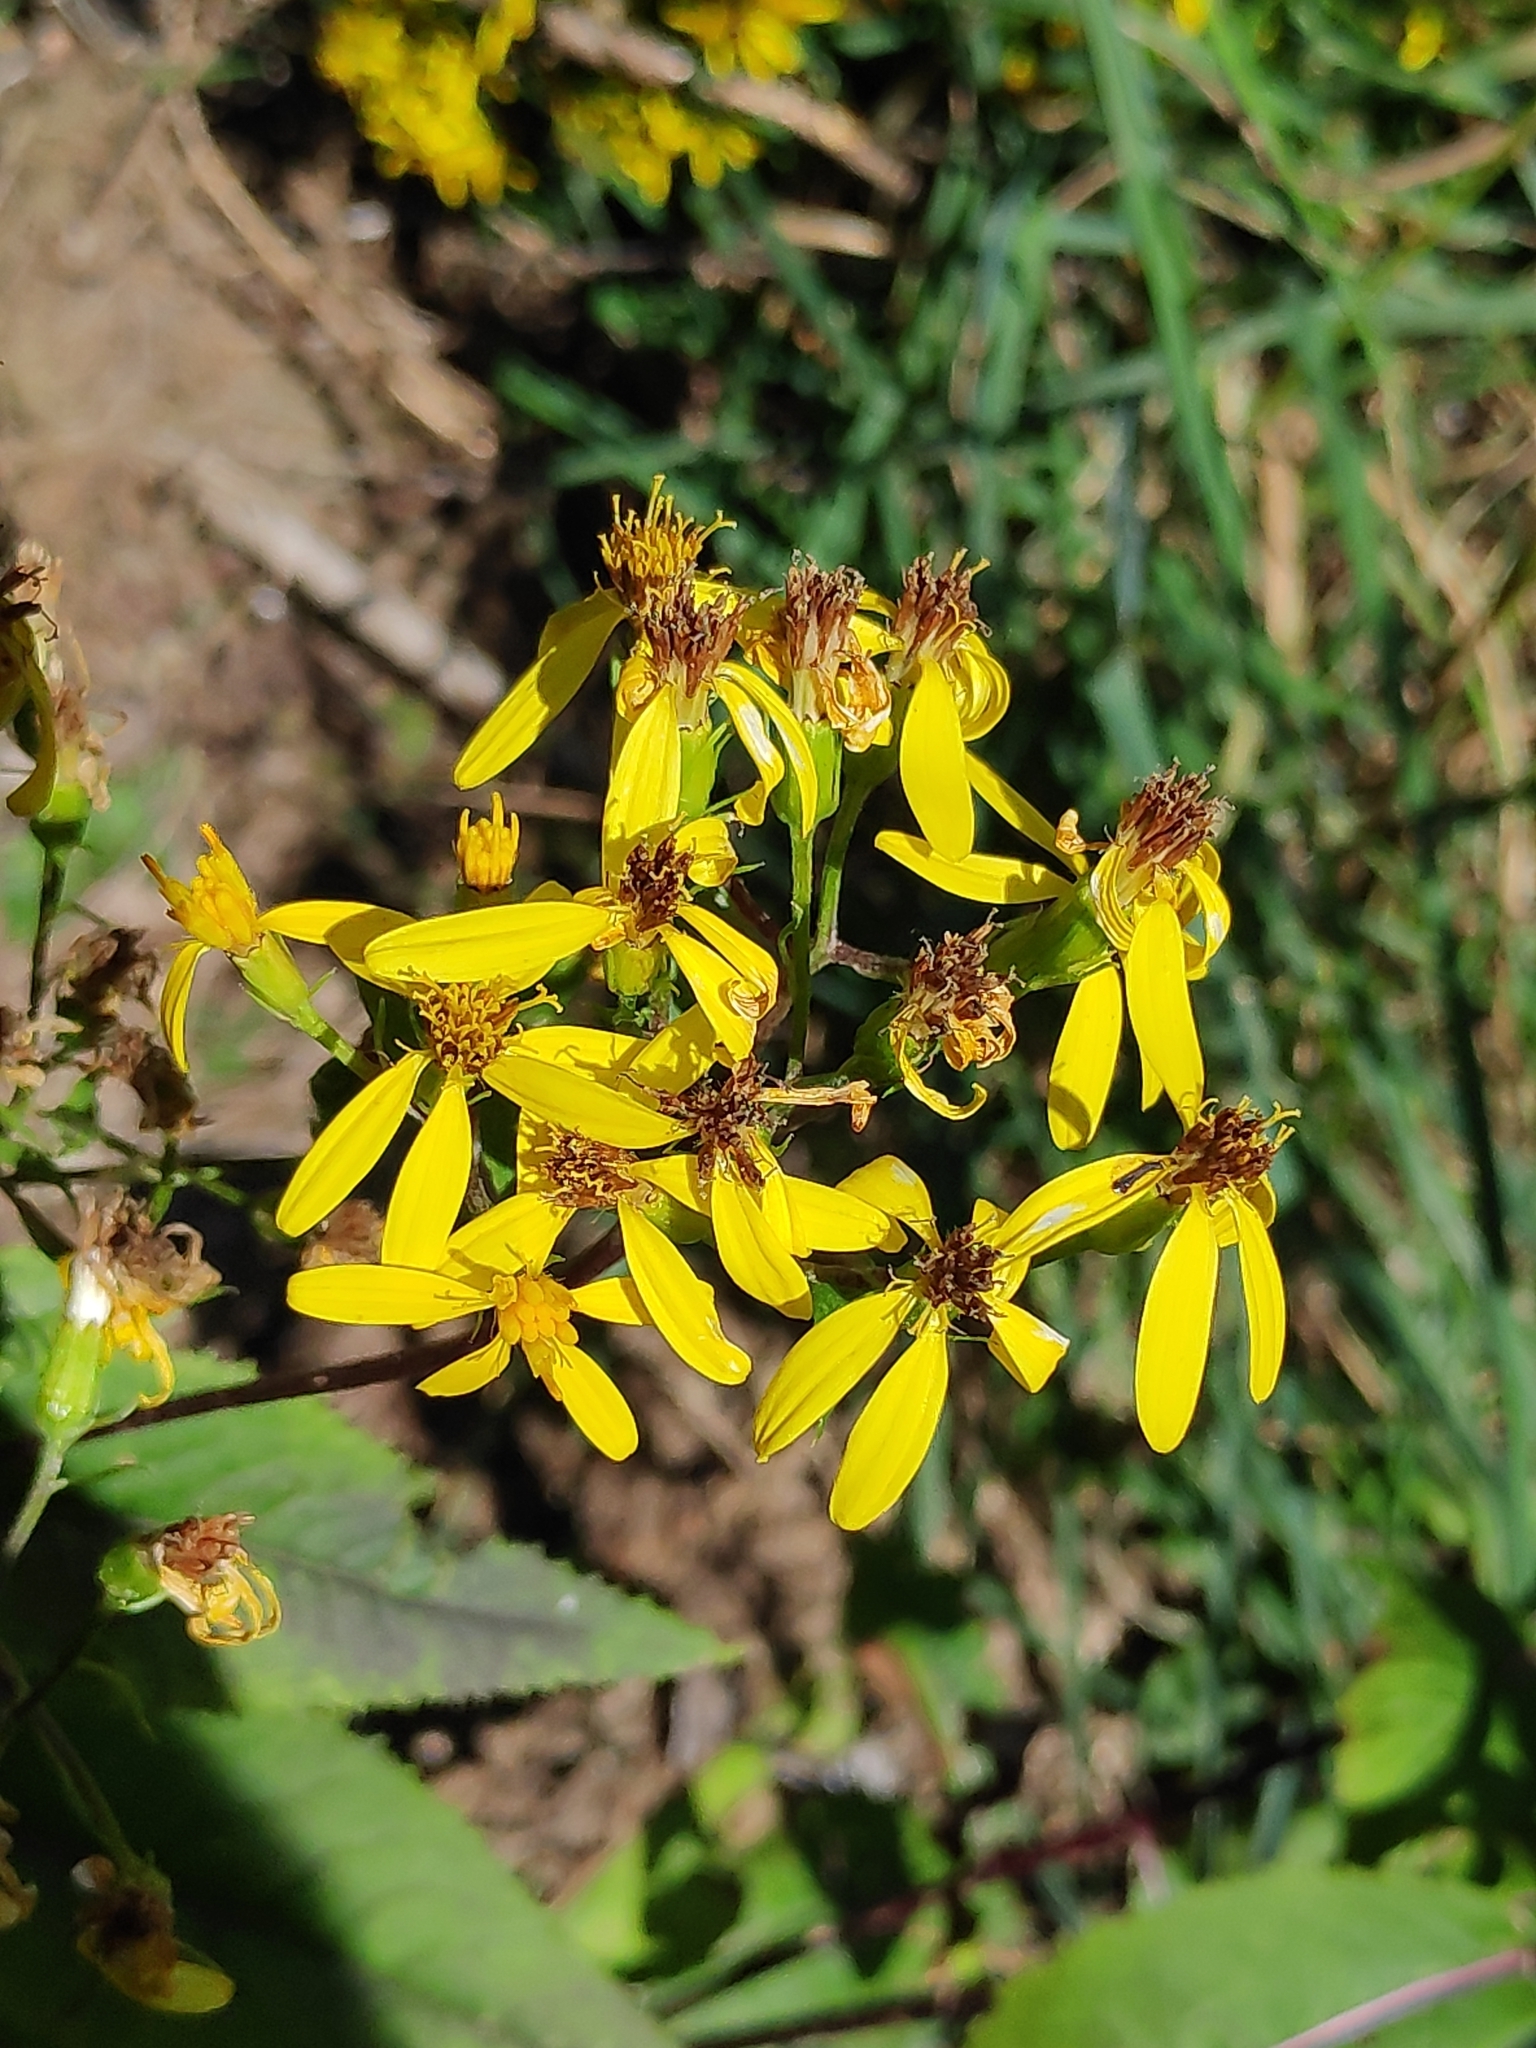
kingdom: Plantae
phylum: Tracheophyta
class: Magnoliopsida
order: Asterales
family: Asteraceae
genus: Senecio
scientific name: Senecio germanicus
